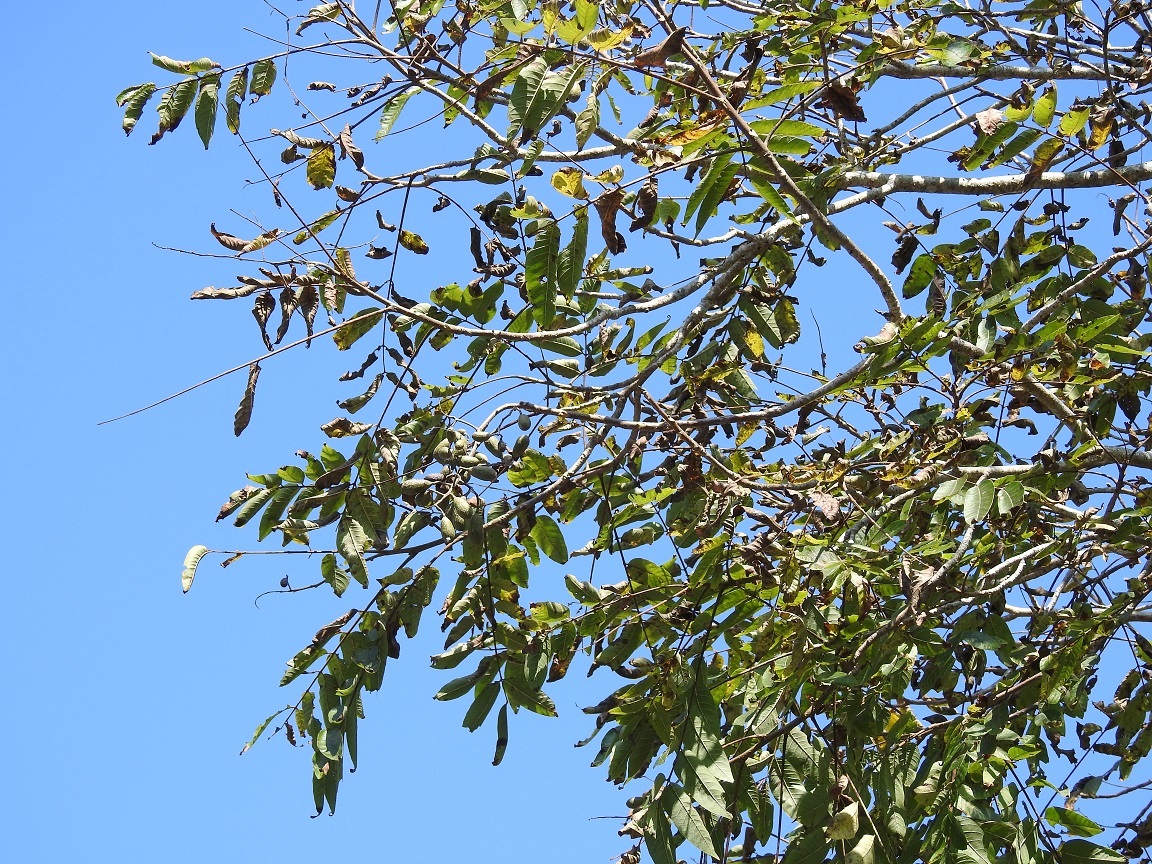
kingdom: Plantae
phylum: Tracheophyta
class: Magnoliopsida
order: Sapindales
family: Meliaceae
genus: Cedrela
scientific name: Cedrela odorata
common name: Red cedar
